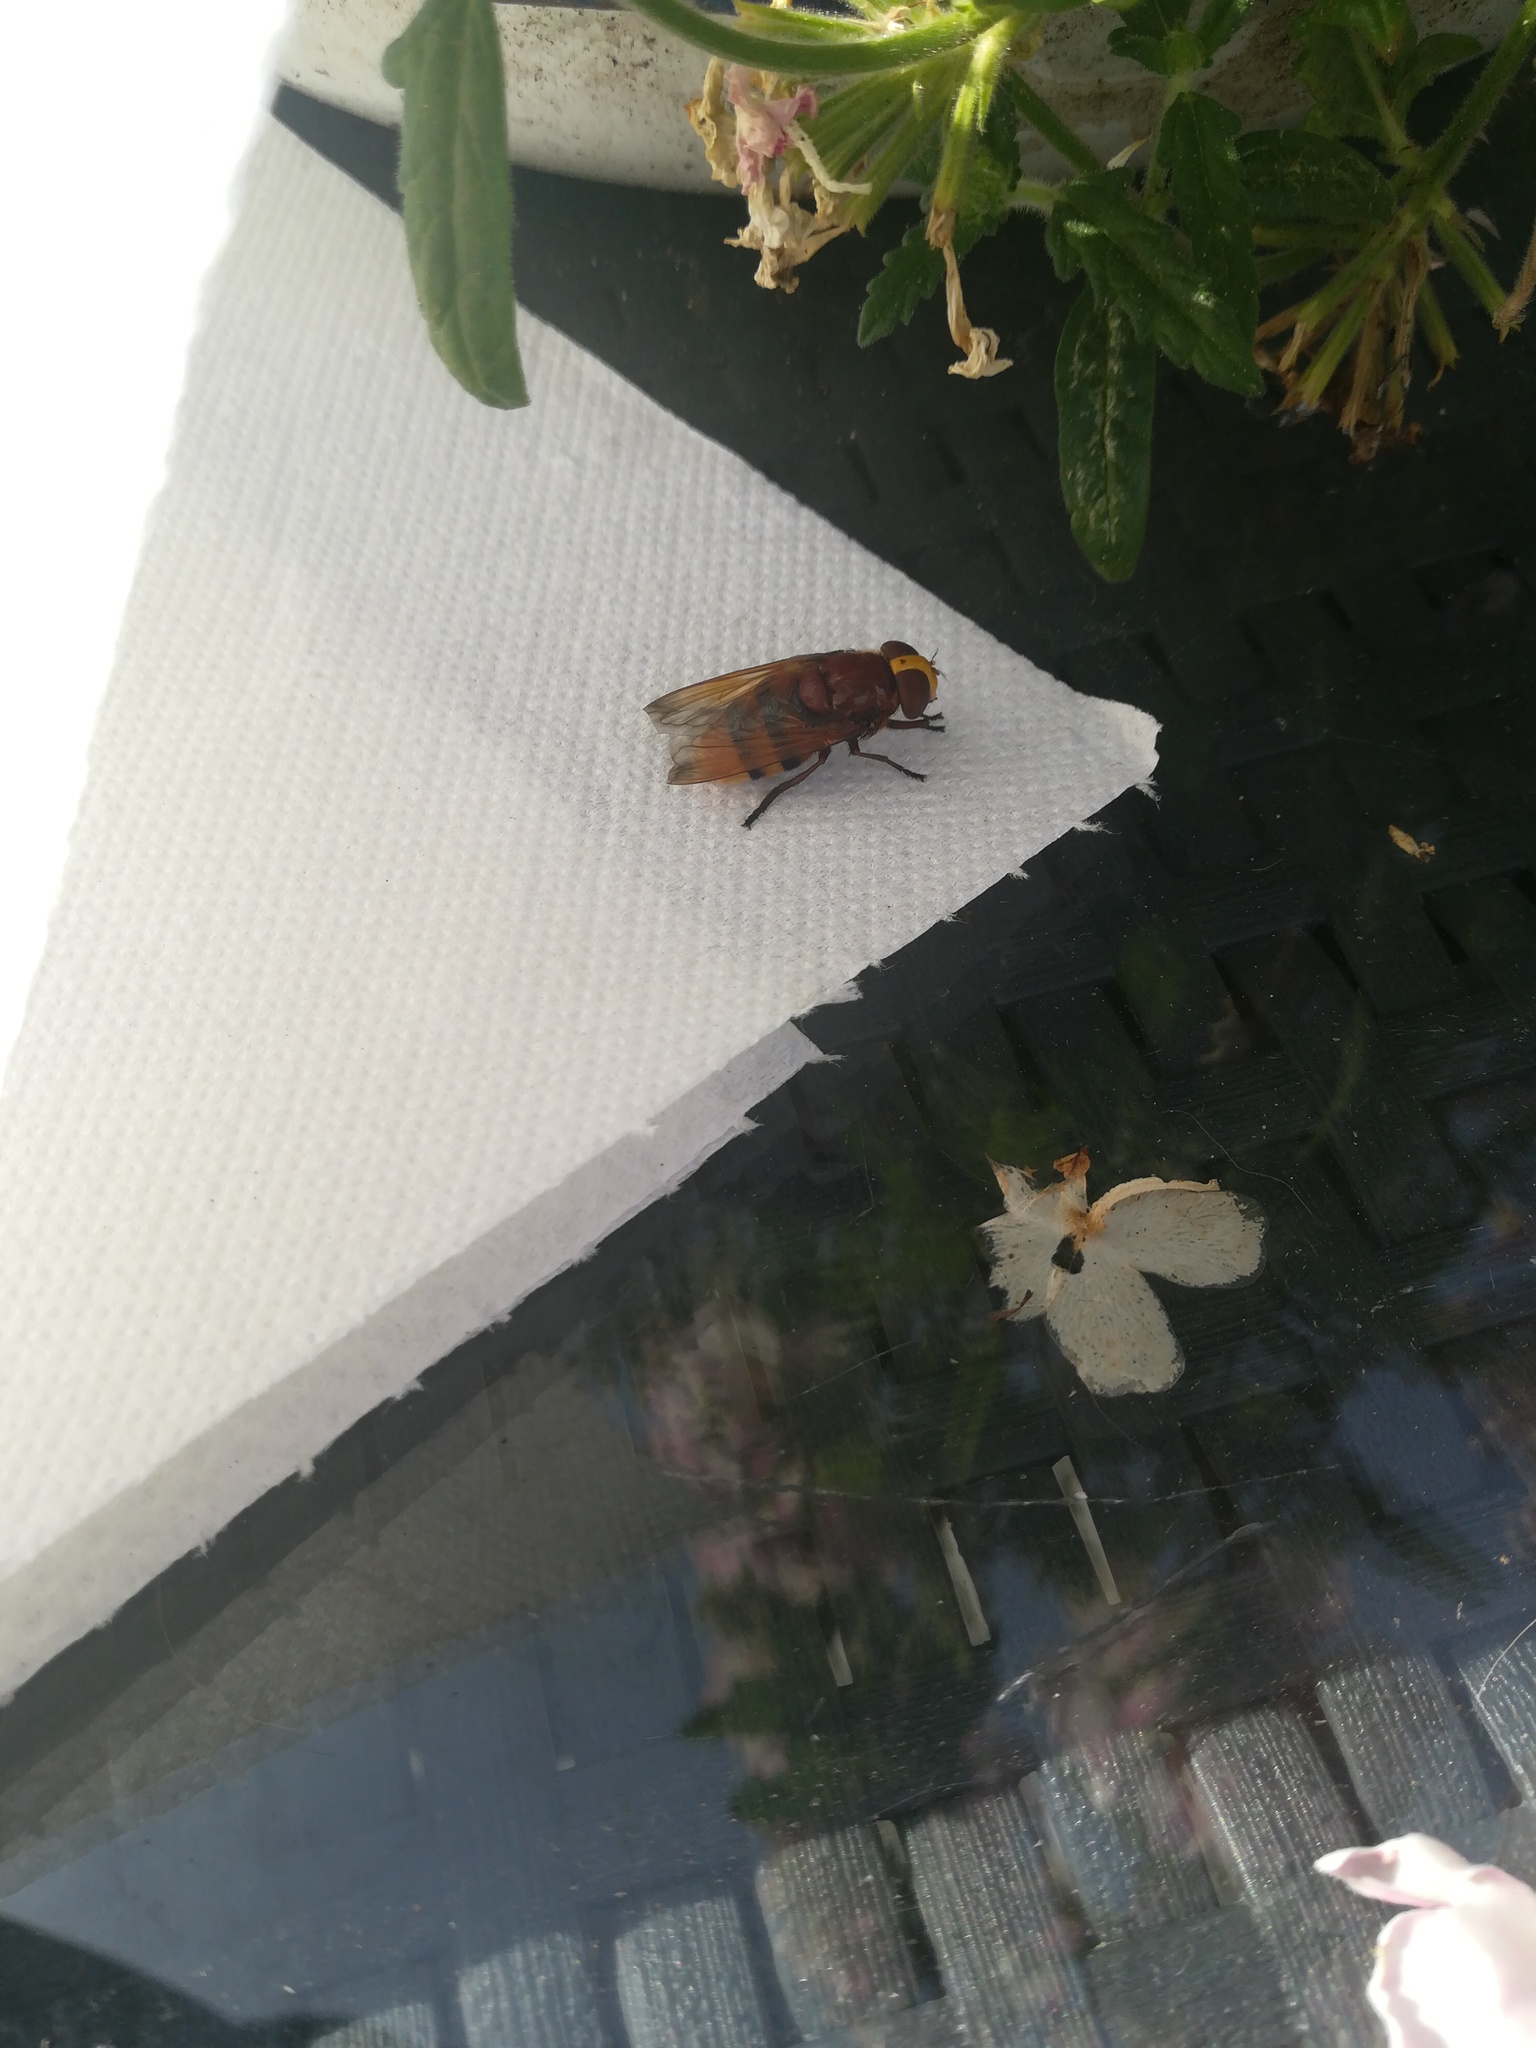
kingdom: Animalia
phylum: Arthropoda
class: Insecta
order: Diptera
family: Syrphidae
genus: Volucella
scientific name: Volucella zonaria
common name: Hornet hoverfly
